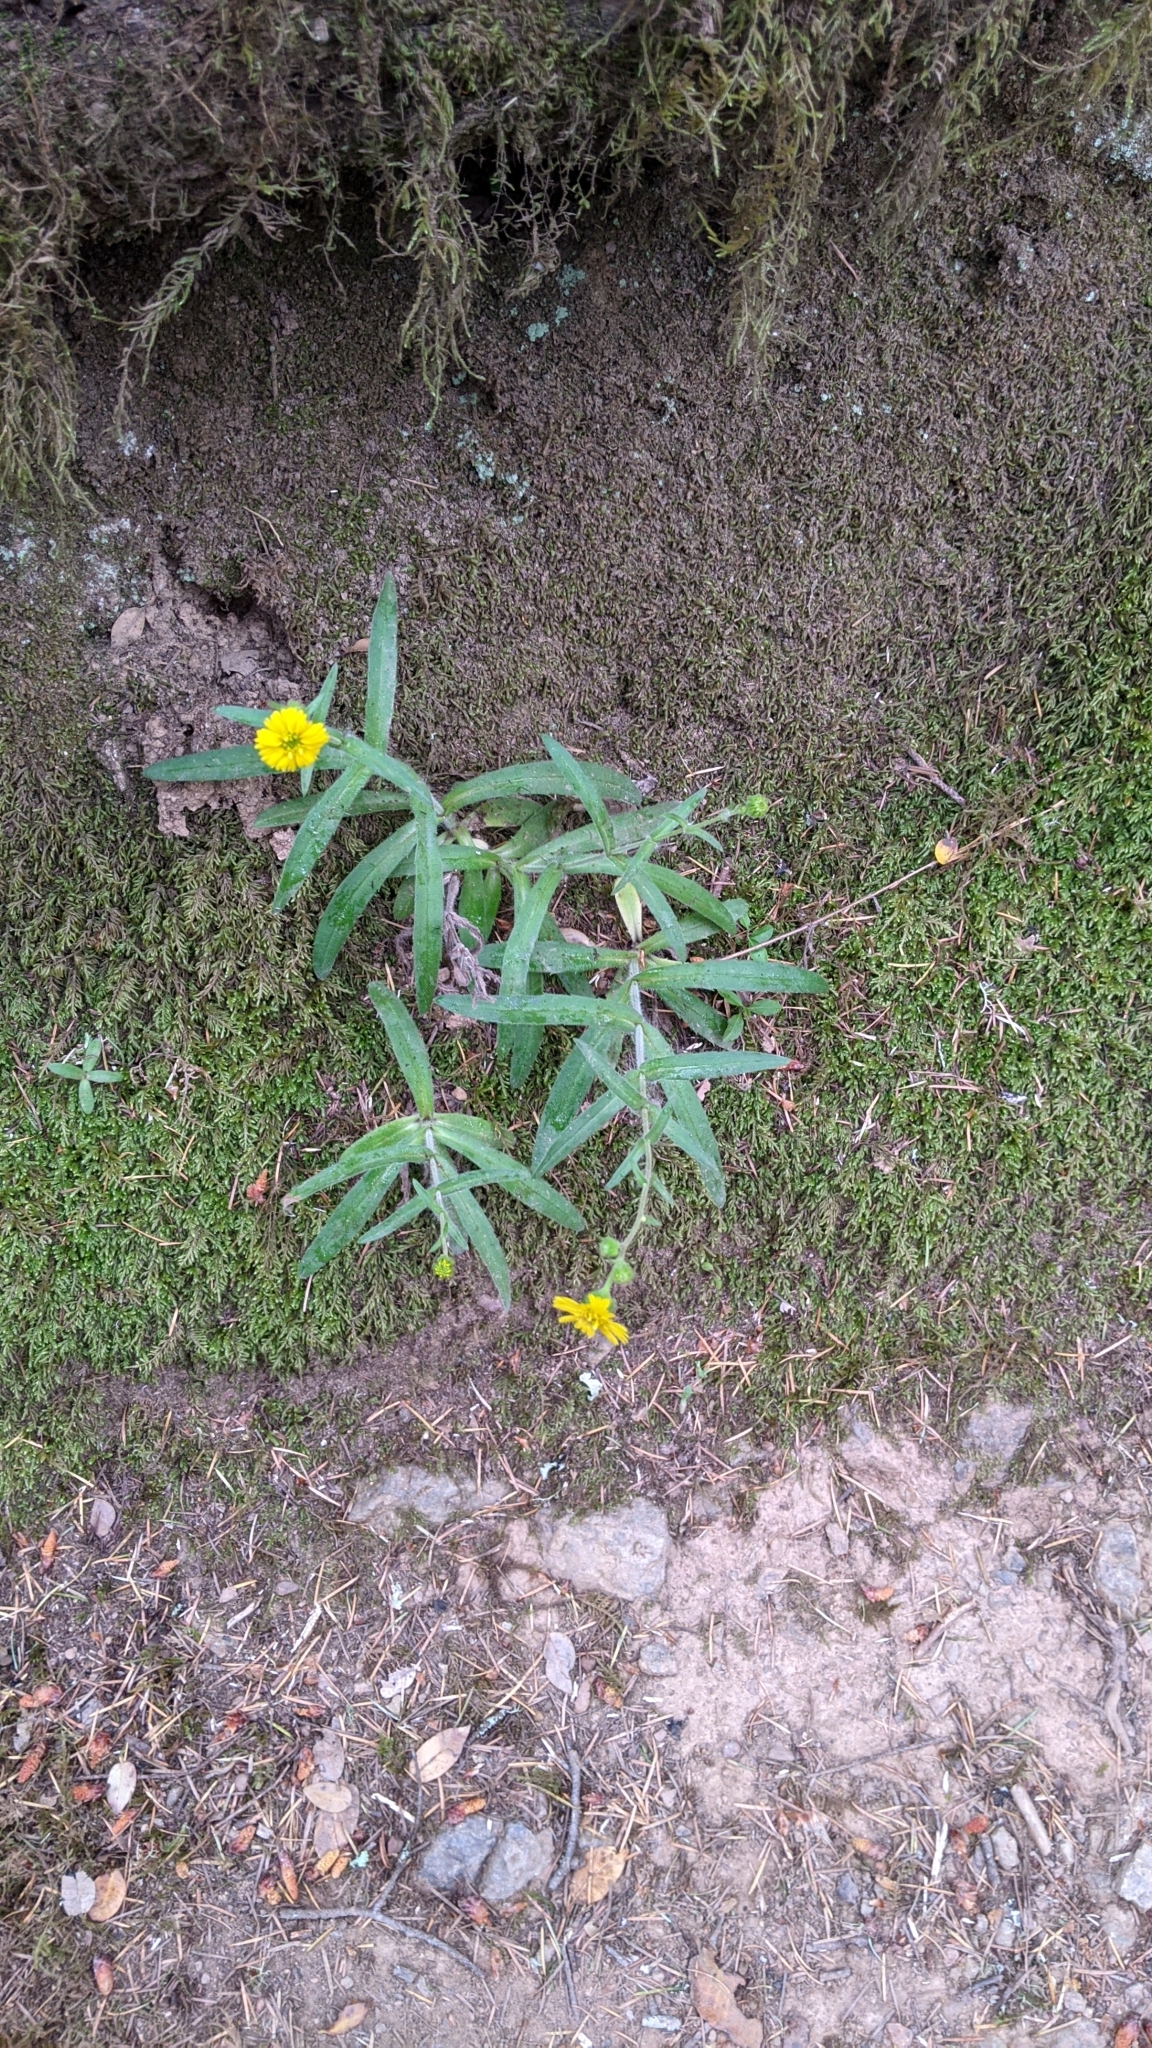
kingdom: Plantae
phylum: Tracheophyta
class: Magnoliopsida
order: Asterales
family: Asteraceae
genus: Anisocarpus
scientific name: Anisocarpus madioides
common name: Woodland madia
